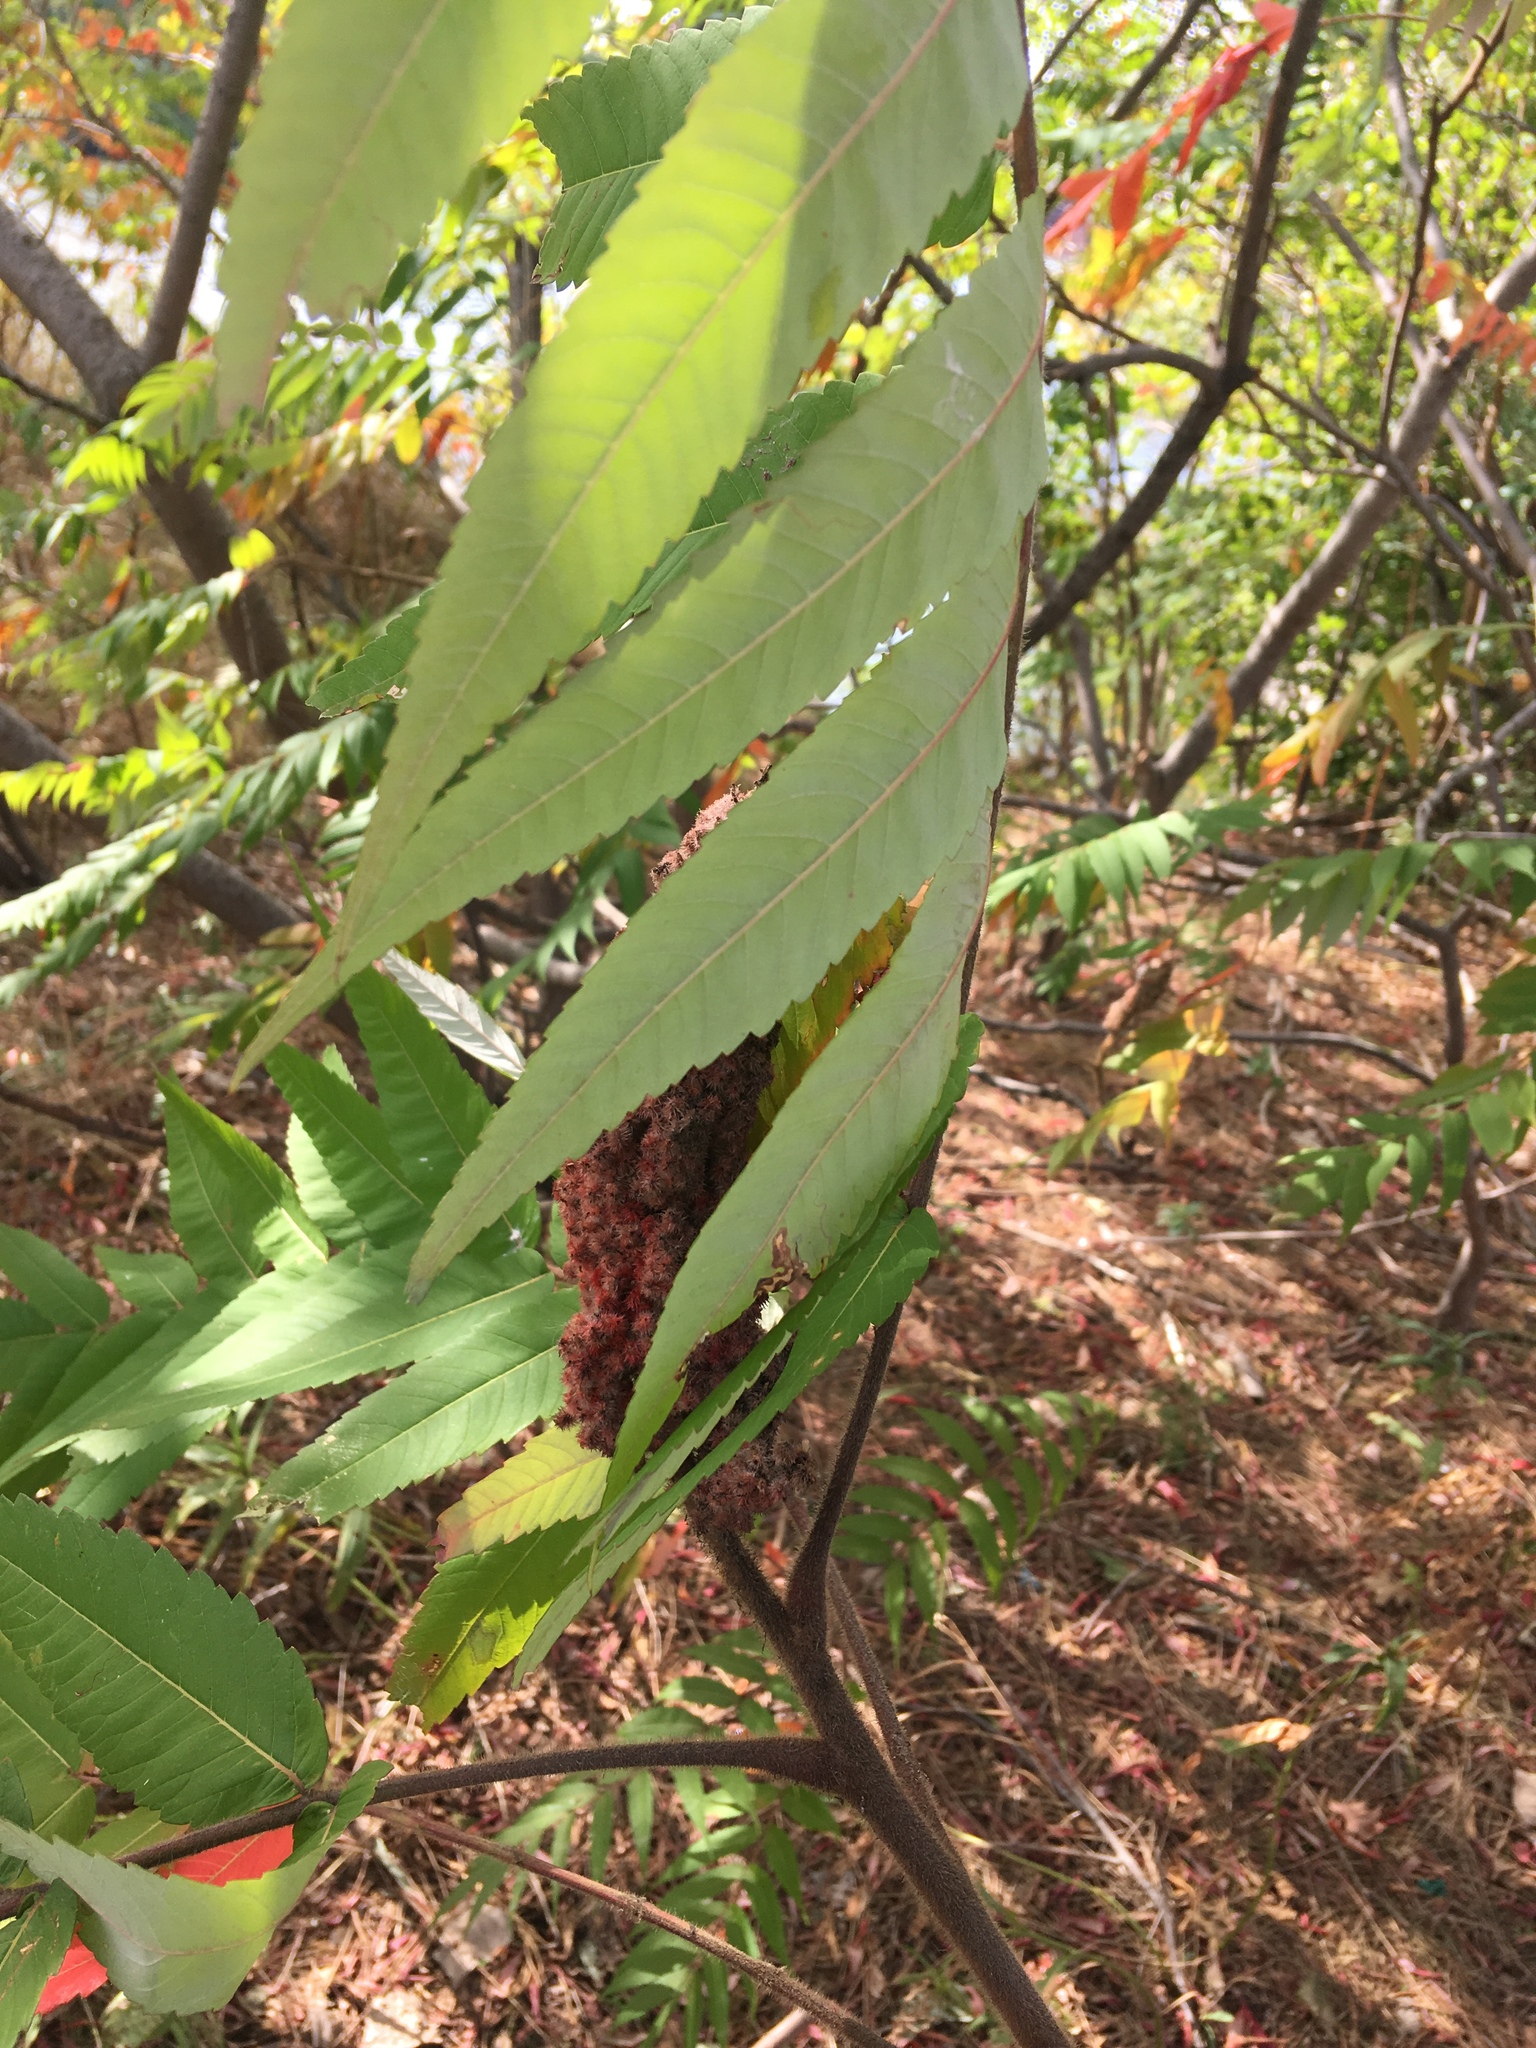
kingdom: Plantae
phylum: Tracheophyta
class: Magnoliopsida
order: Sapindales
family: Anacardiaceae
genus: Rhus
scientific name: Rhus typhina
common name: Staghorn sumac
